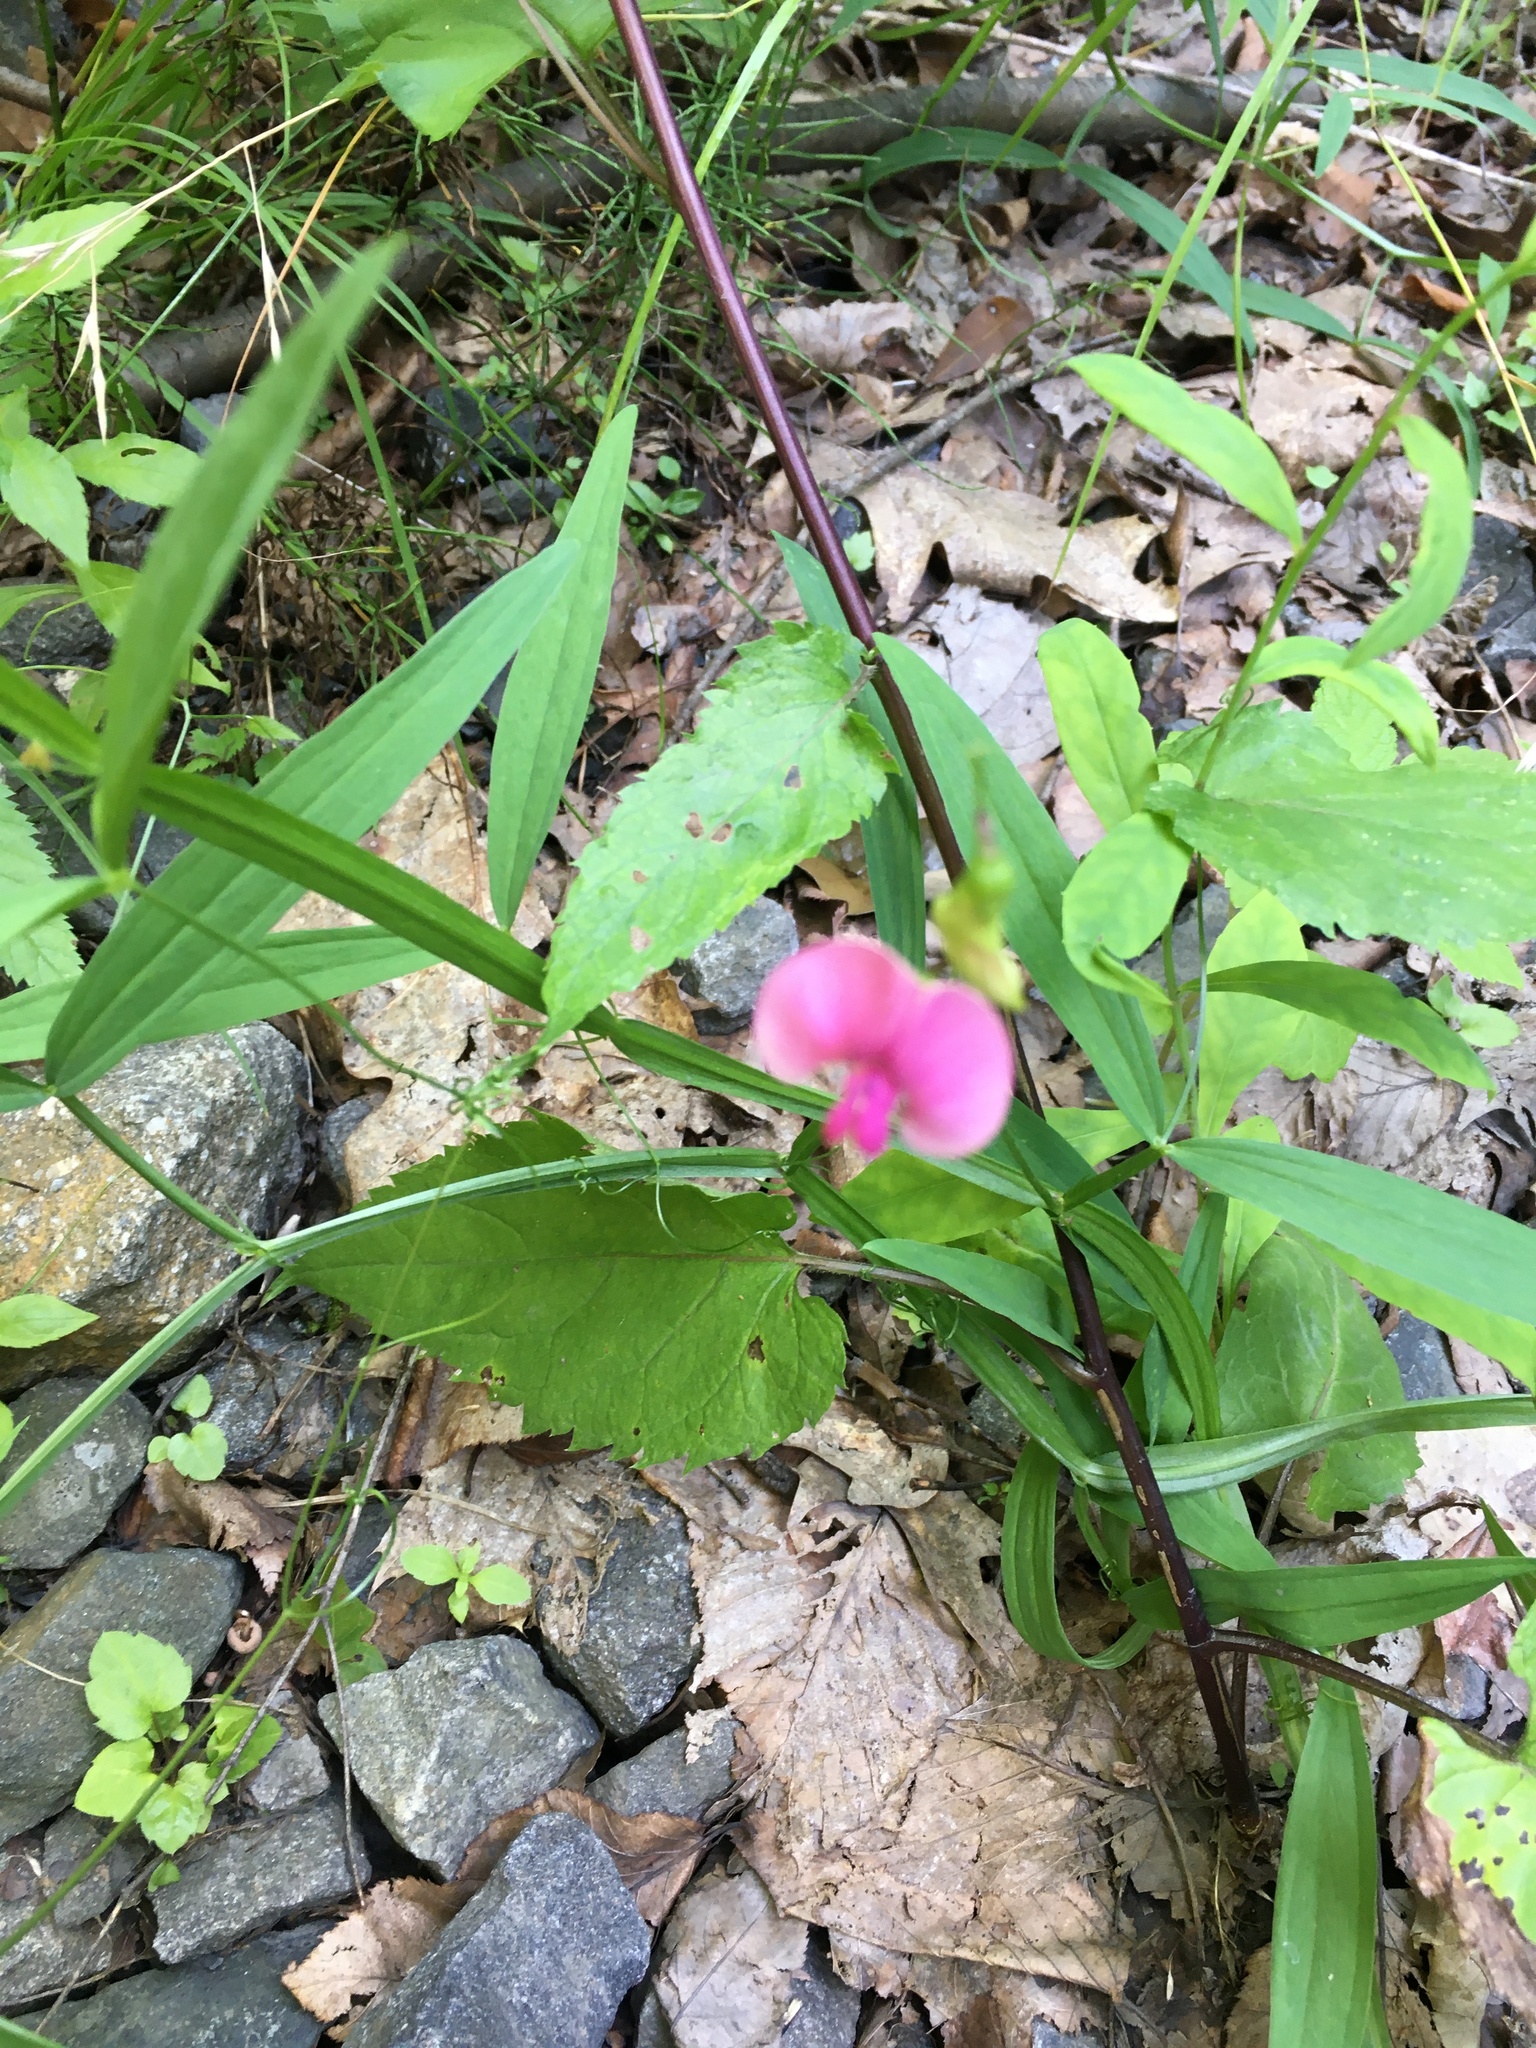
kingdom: Plantae
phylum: Tracheophyta
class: Magnoliopsida
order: Fabales
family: Fabaceae
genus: Lathyrus
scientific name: Lathyrus sylvestris
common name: Flat pea
